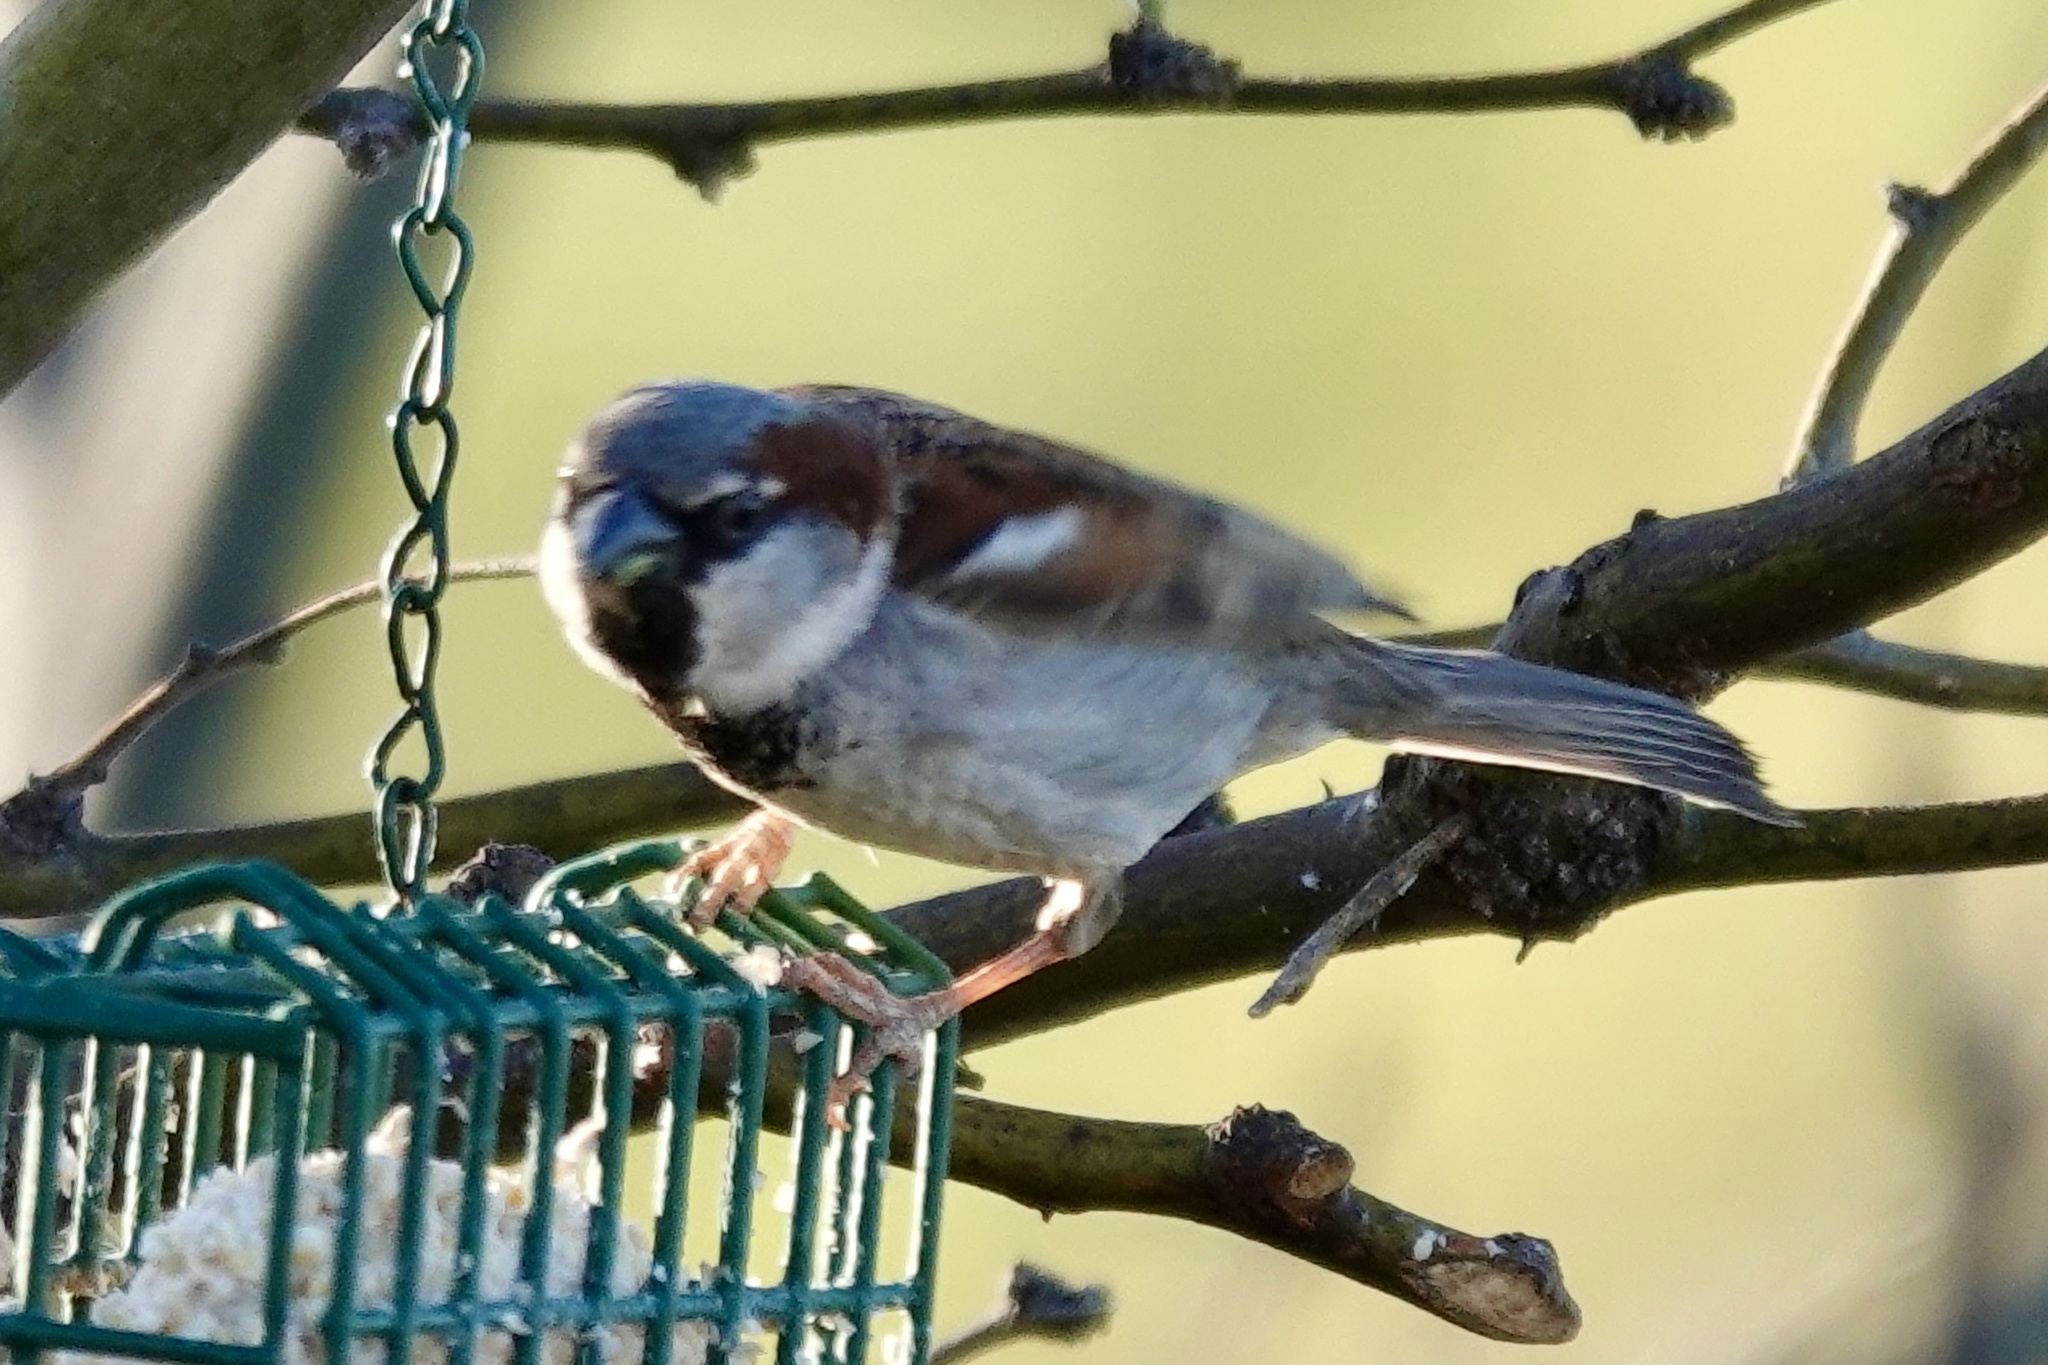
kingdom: Animalia
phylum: Chordata
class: Aves
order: Passeriformes
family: Passeridae
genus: Passer
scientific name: Passer domesticus
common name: House sparrow
